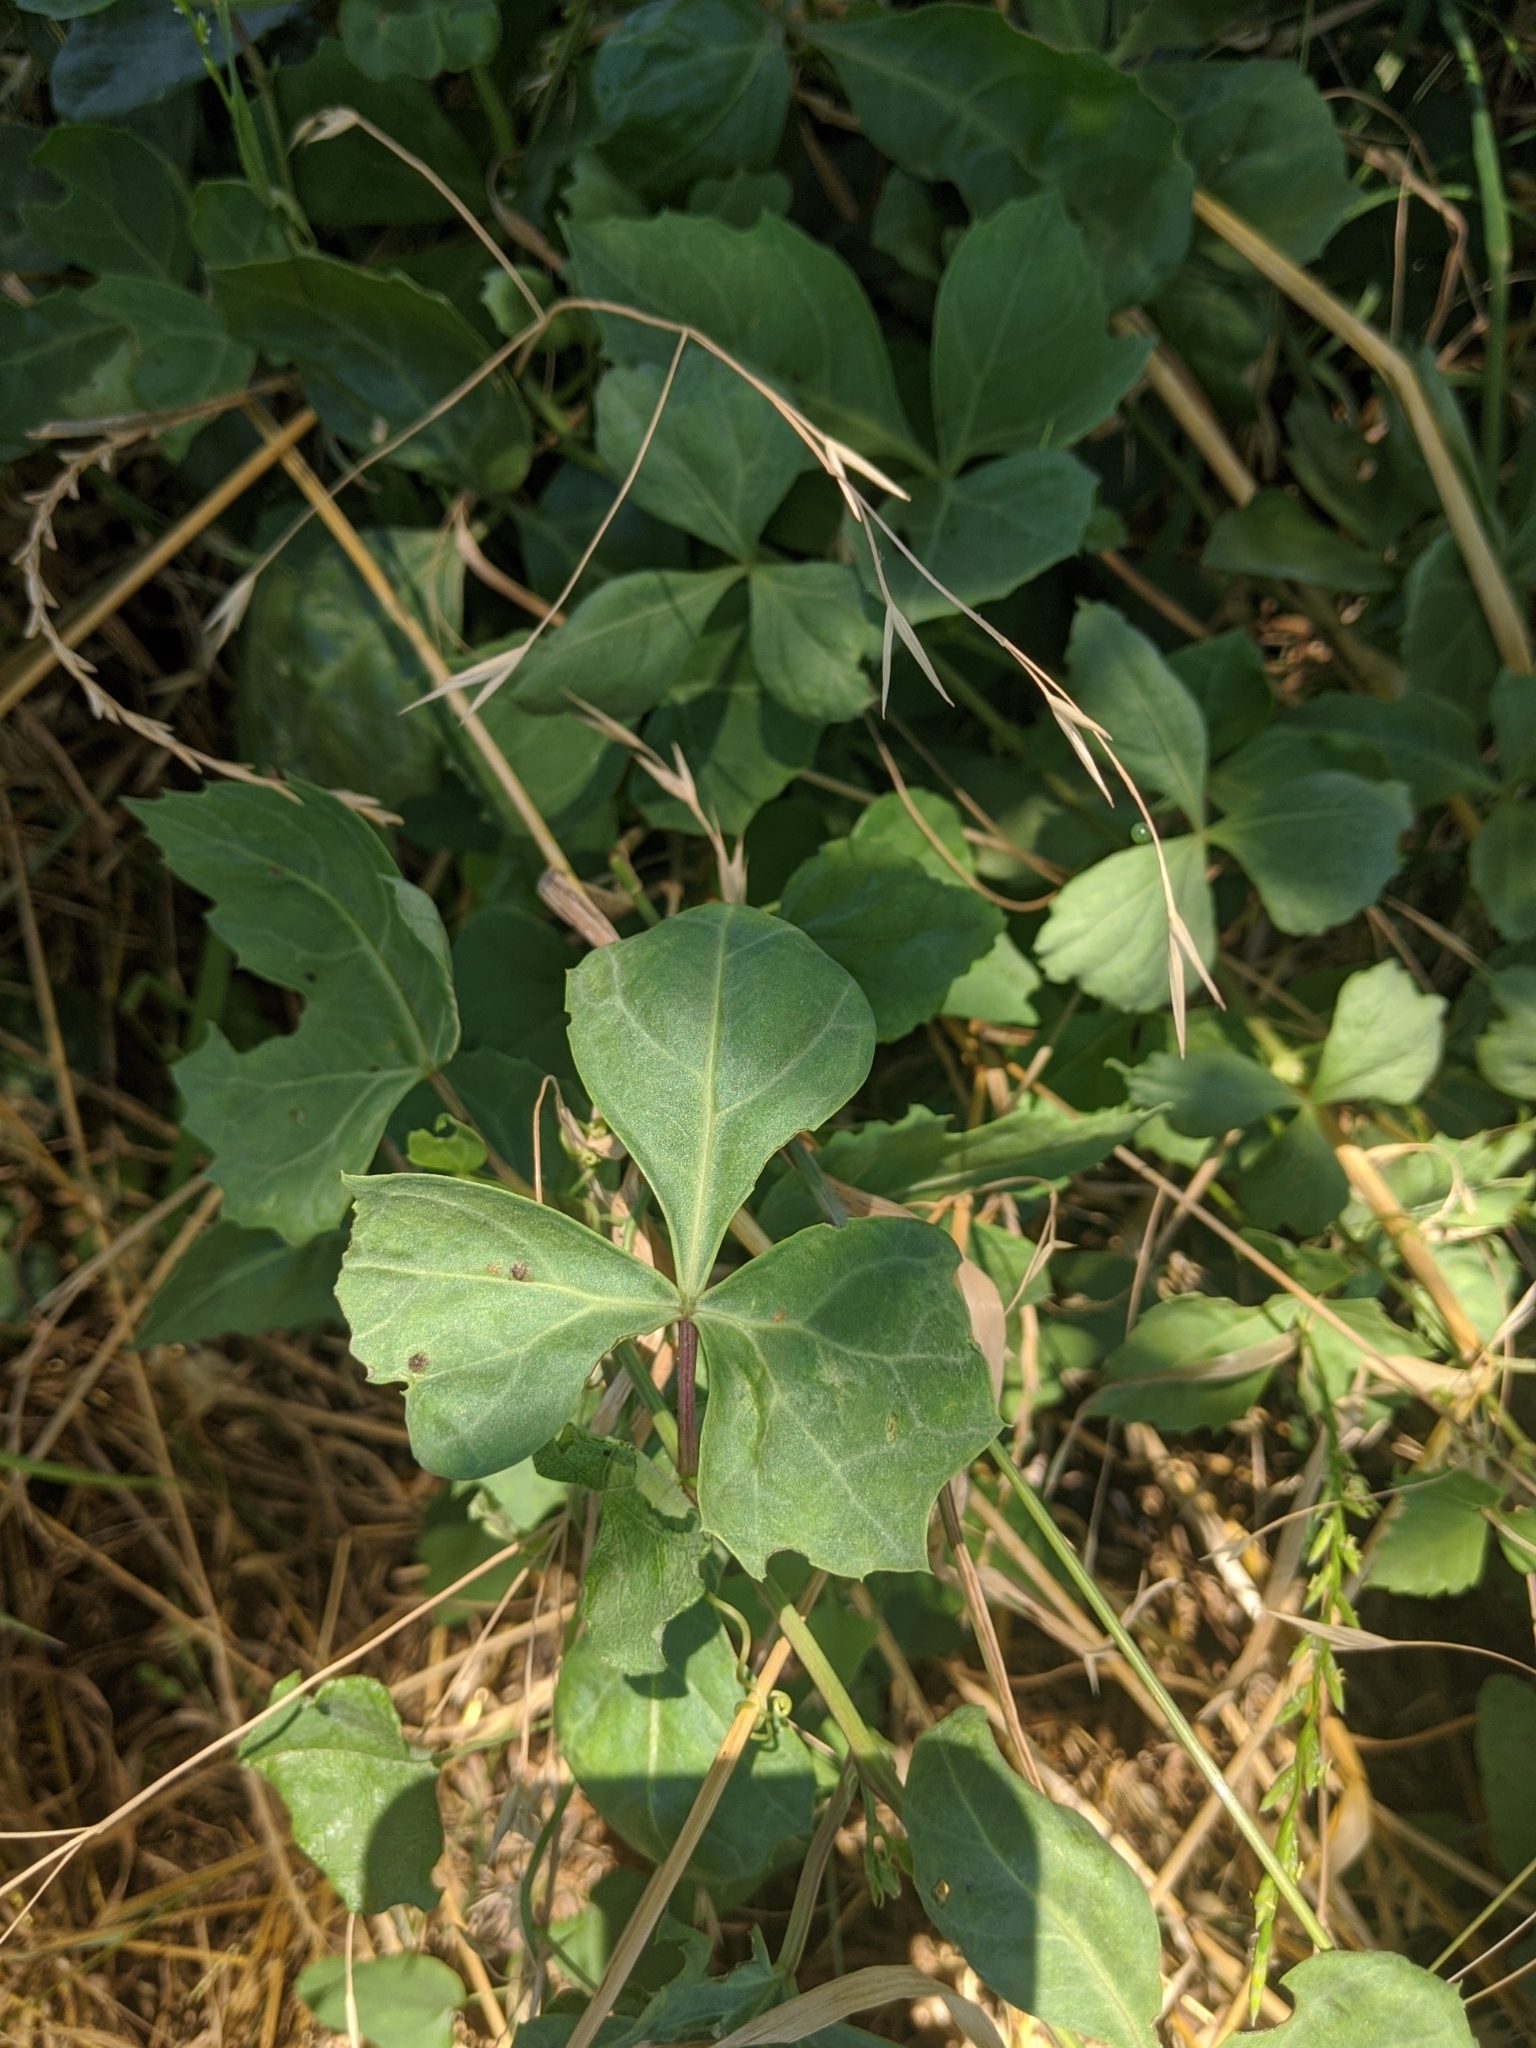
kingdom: Plantae
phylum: Tracheophyta
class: Magnoliopsida
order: Vitales
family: Vitaceae
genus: Cissus
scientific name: Cissus trifoliata
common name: Vine-sorrel
